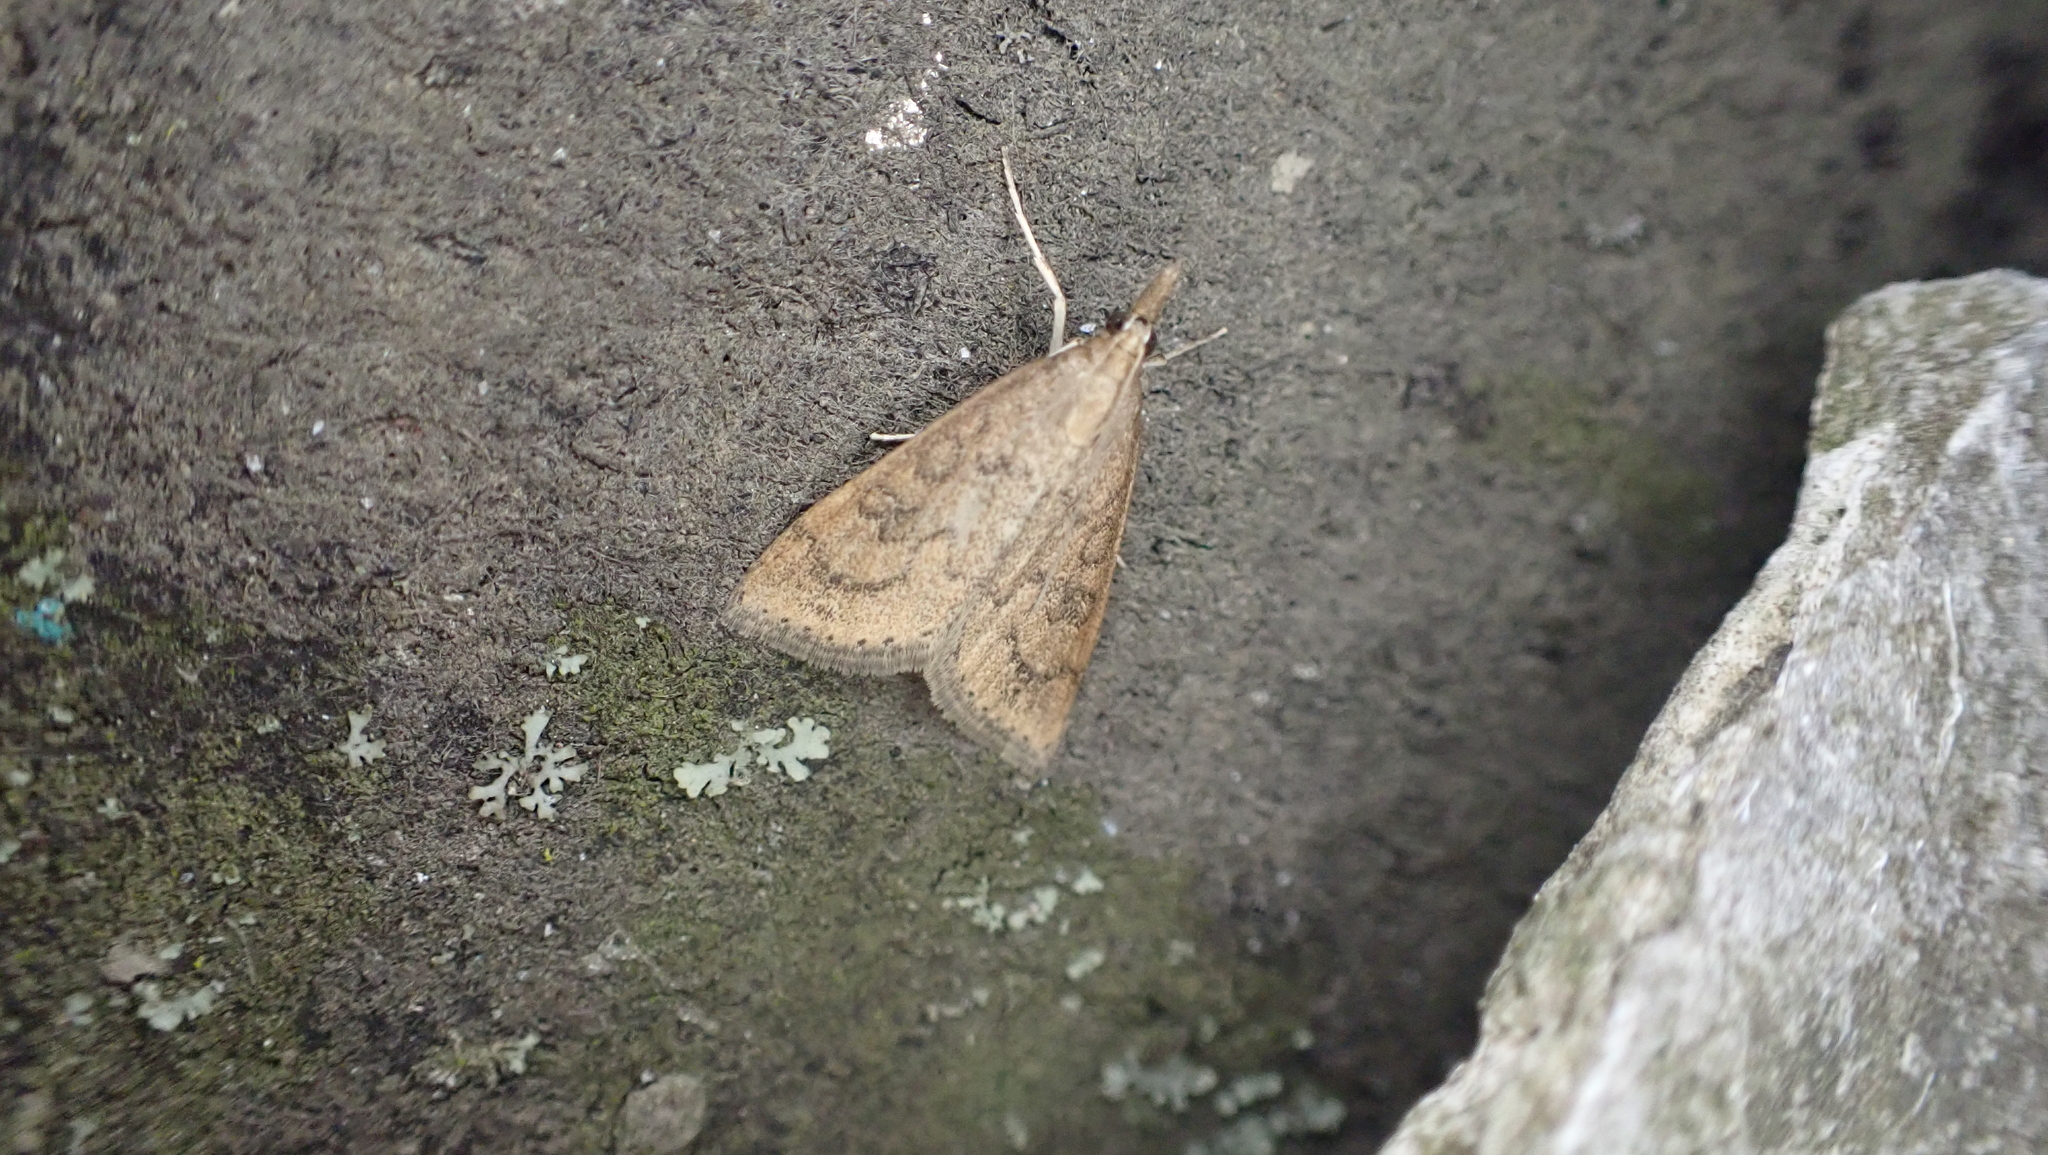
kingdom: Animalia
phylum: Arthropoda
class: Insecta
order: Lepidoptera
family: Crambidae
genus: Udea
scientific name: Udea rubigalis
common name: Celery leaftier moth
